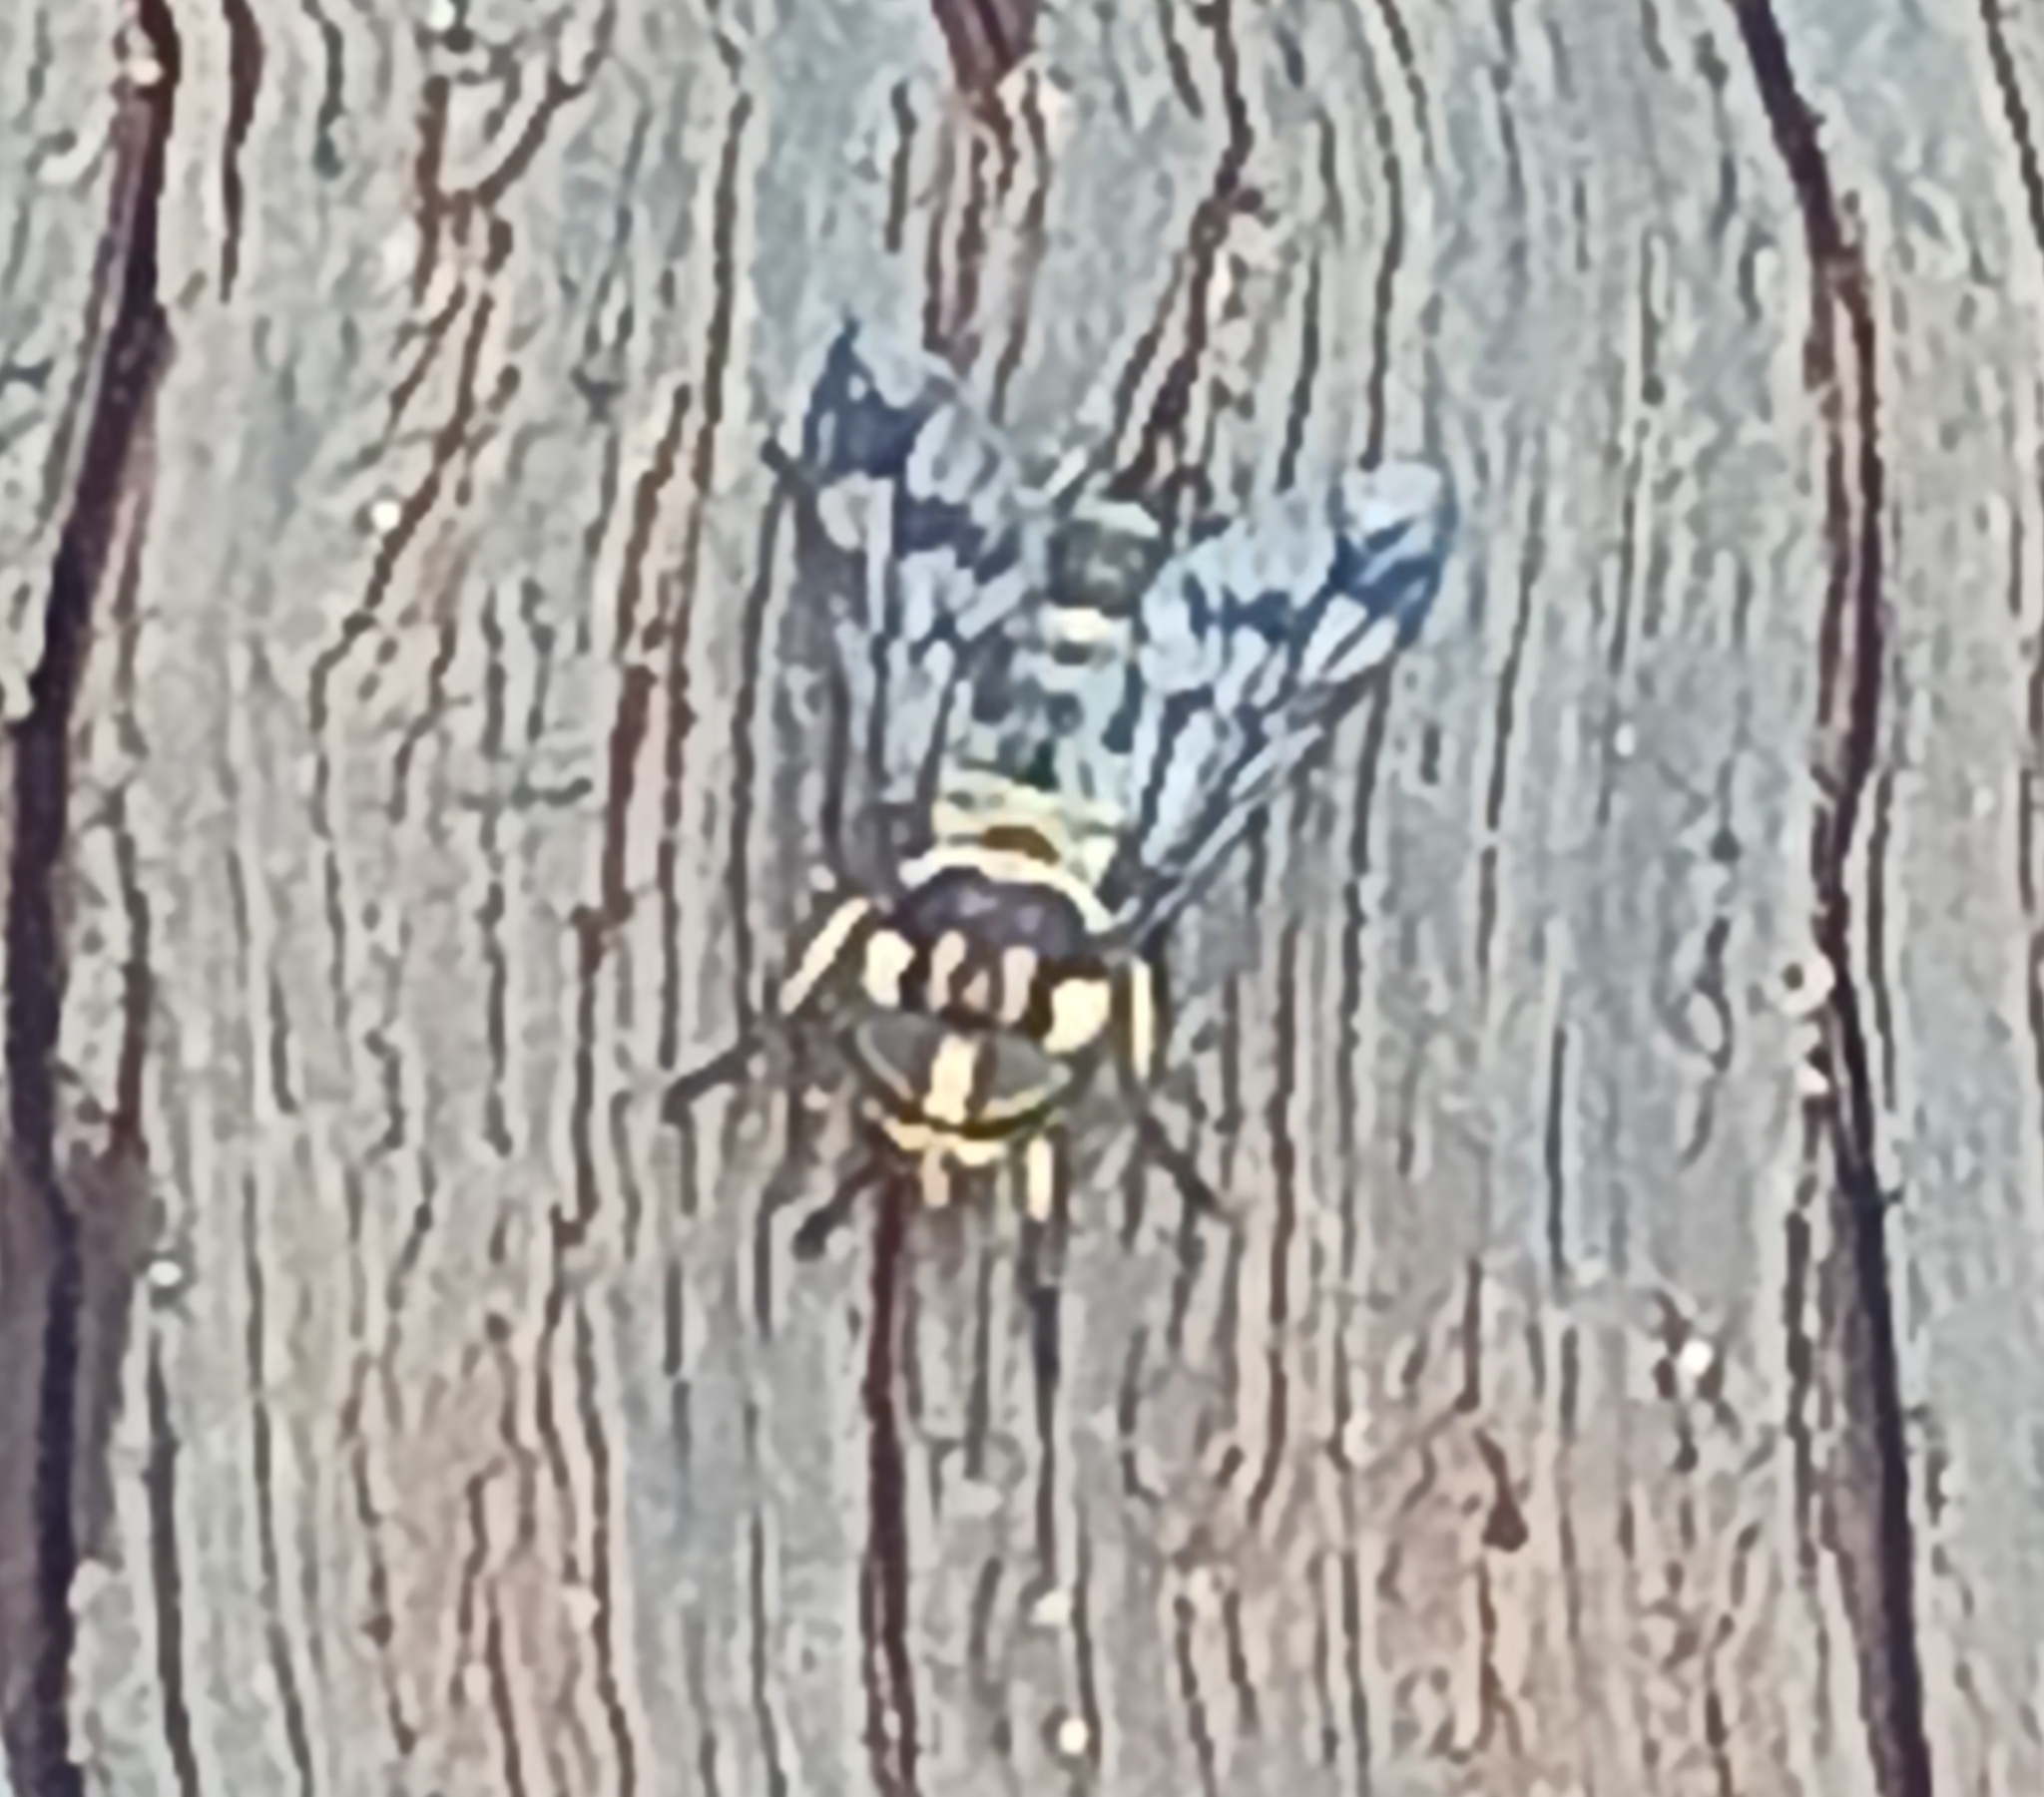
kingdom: Animalia
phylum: Arthropoda
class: Insecta
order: Diptera
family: Tabanidae
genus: Dichelacera
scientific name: Dichelacera alcicornis
